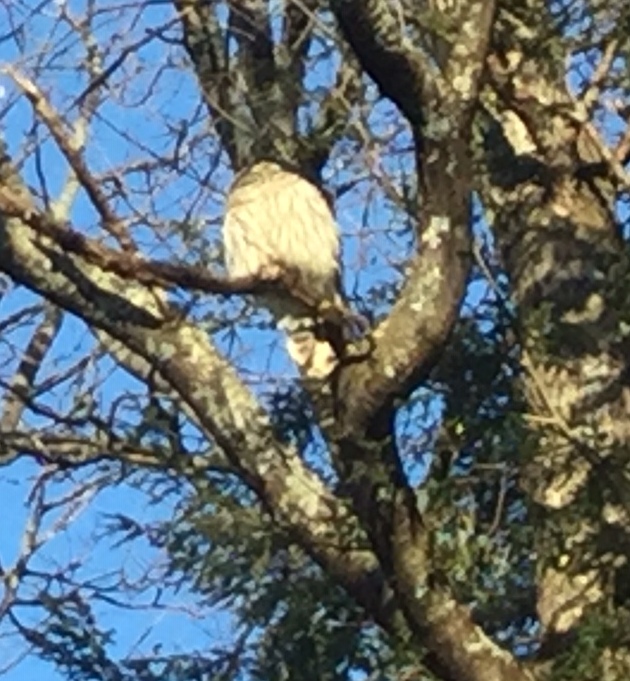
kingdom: Animalia
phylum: Chordata
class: Aves
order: Strigiformes
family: Strigidae
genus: Strix
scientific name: Strix varia
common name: Barred owl
